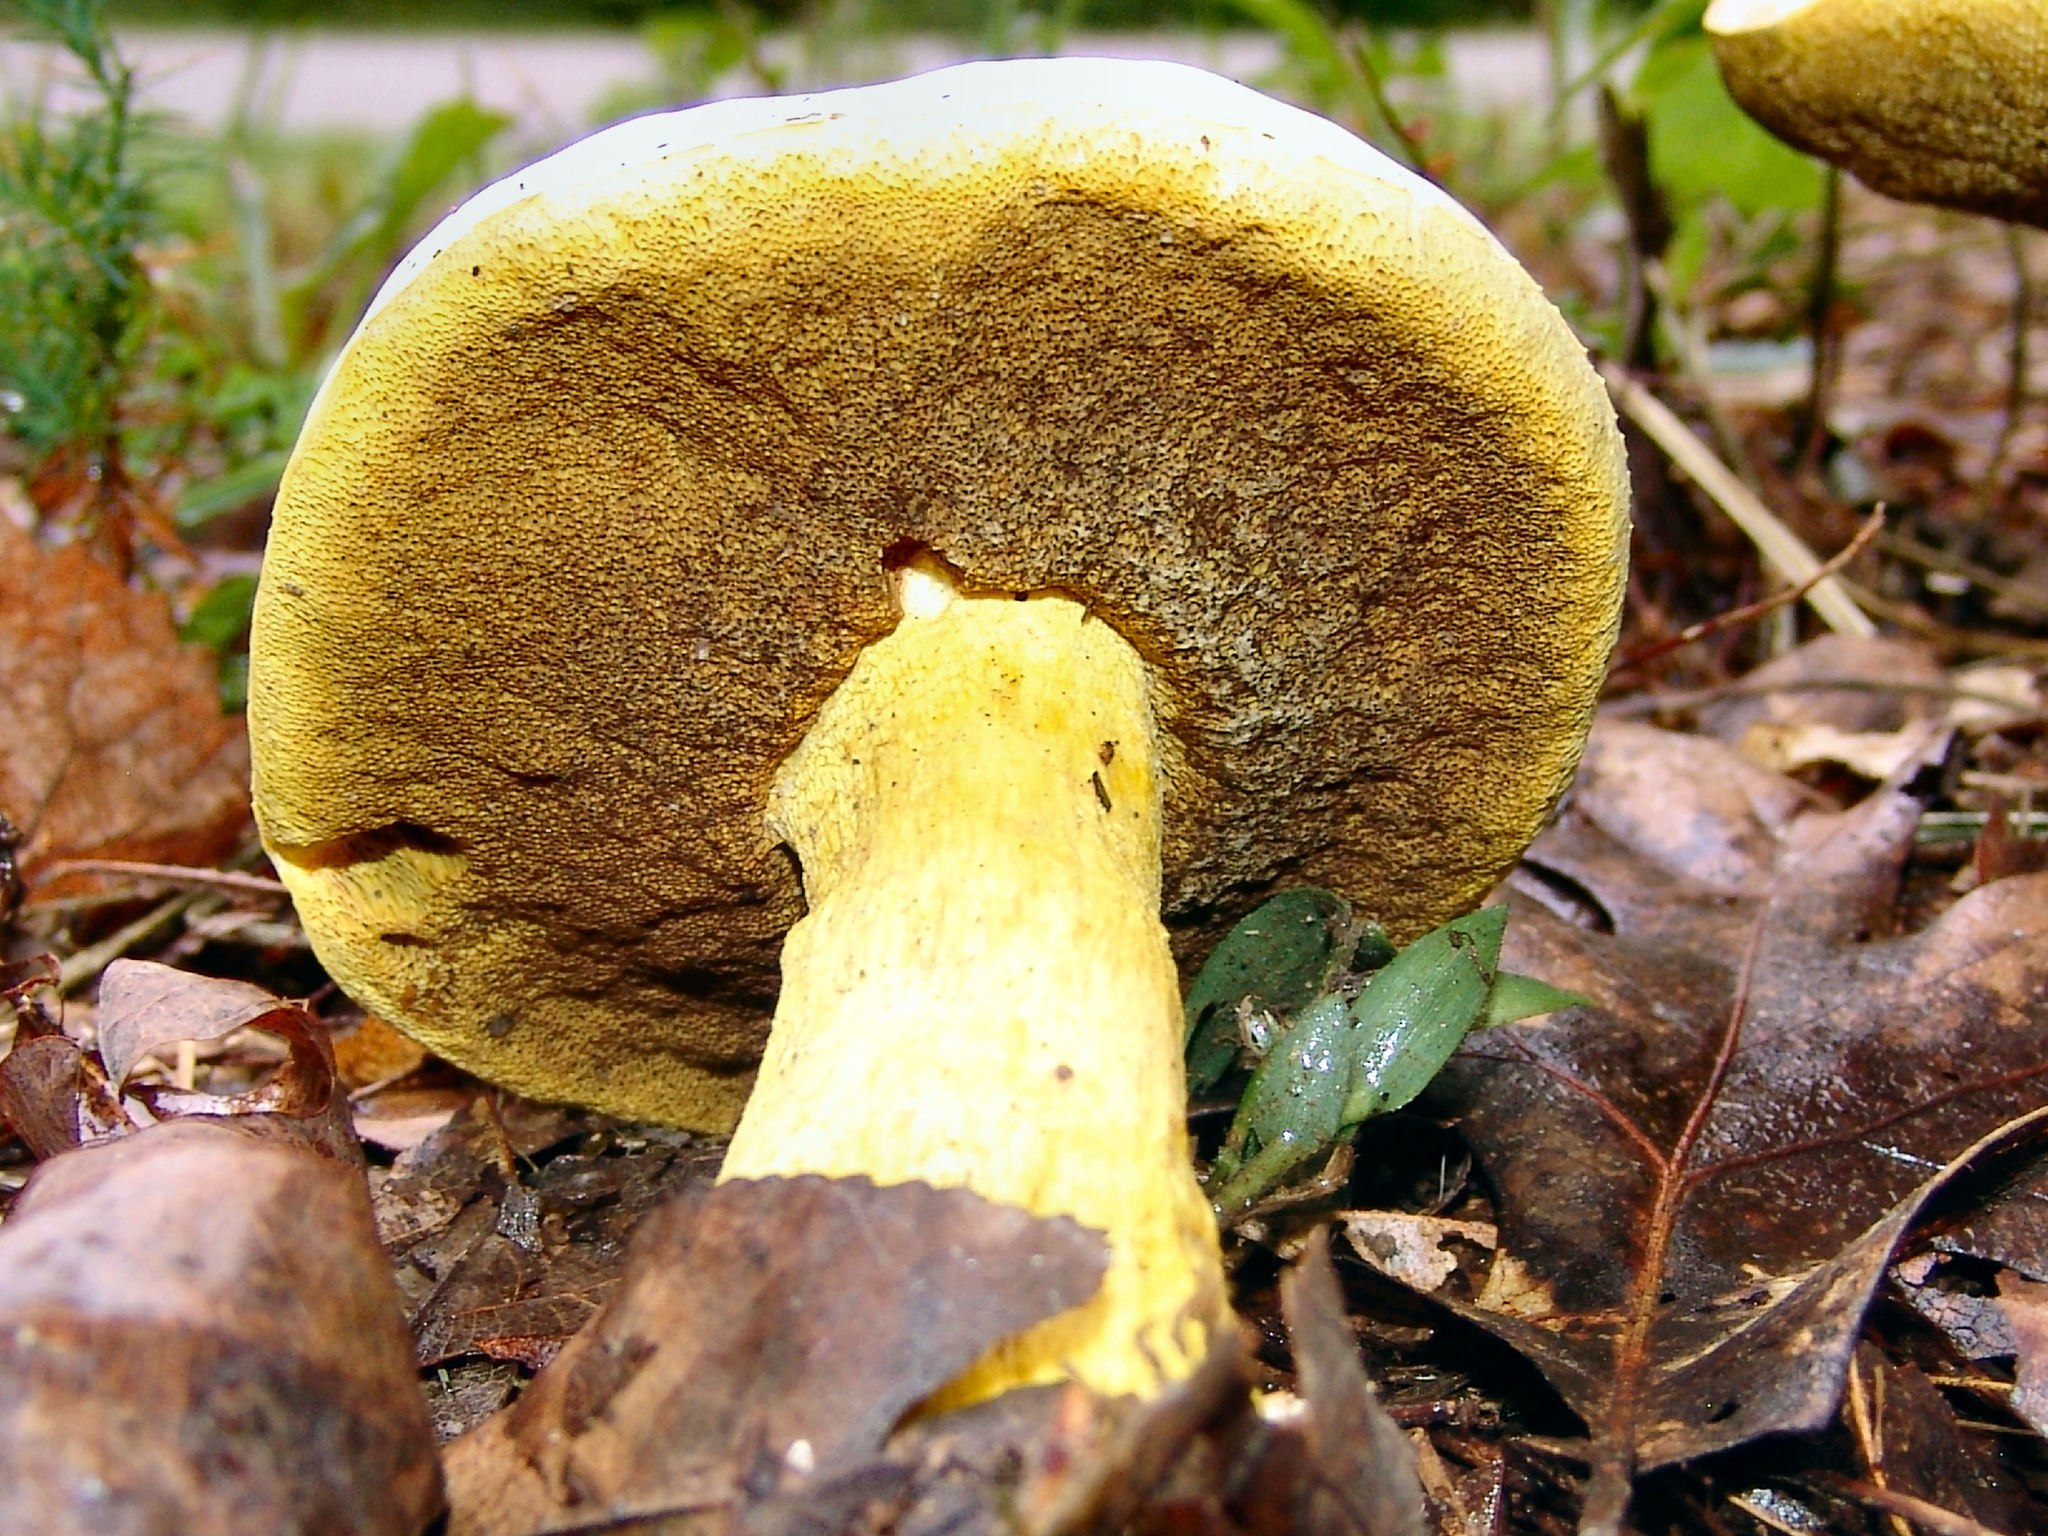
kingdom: Fungi
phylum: Basidiomycota
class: Agaricomycetes
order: Boletales
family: Boletaceae
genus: Boletus
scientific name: Boletus auripes
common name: Butter-foot bolete
